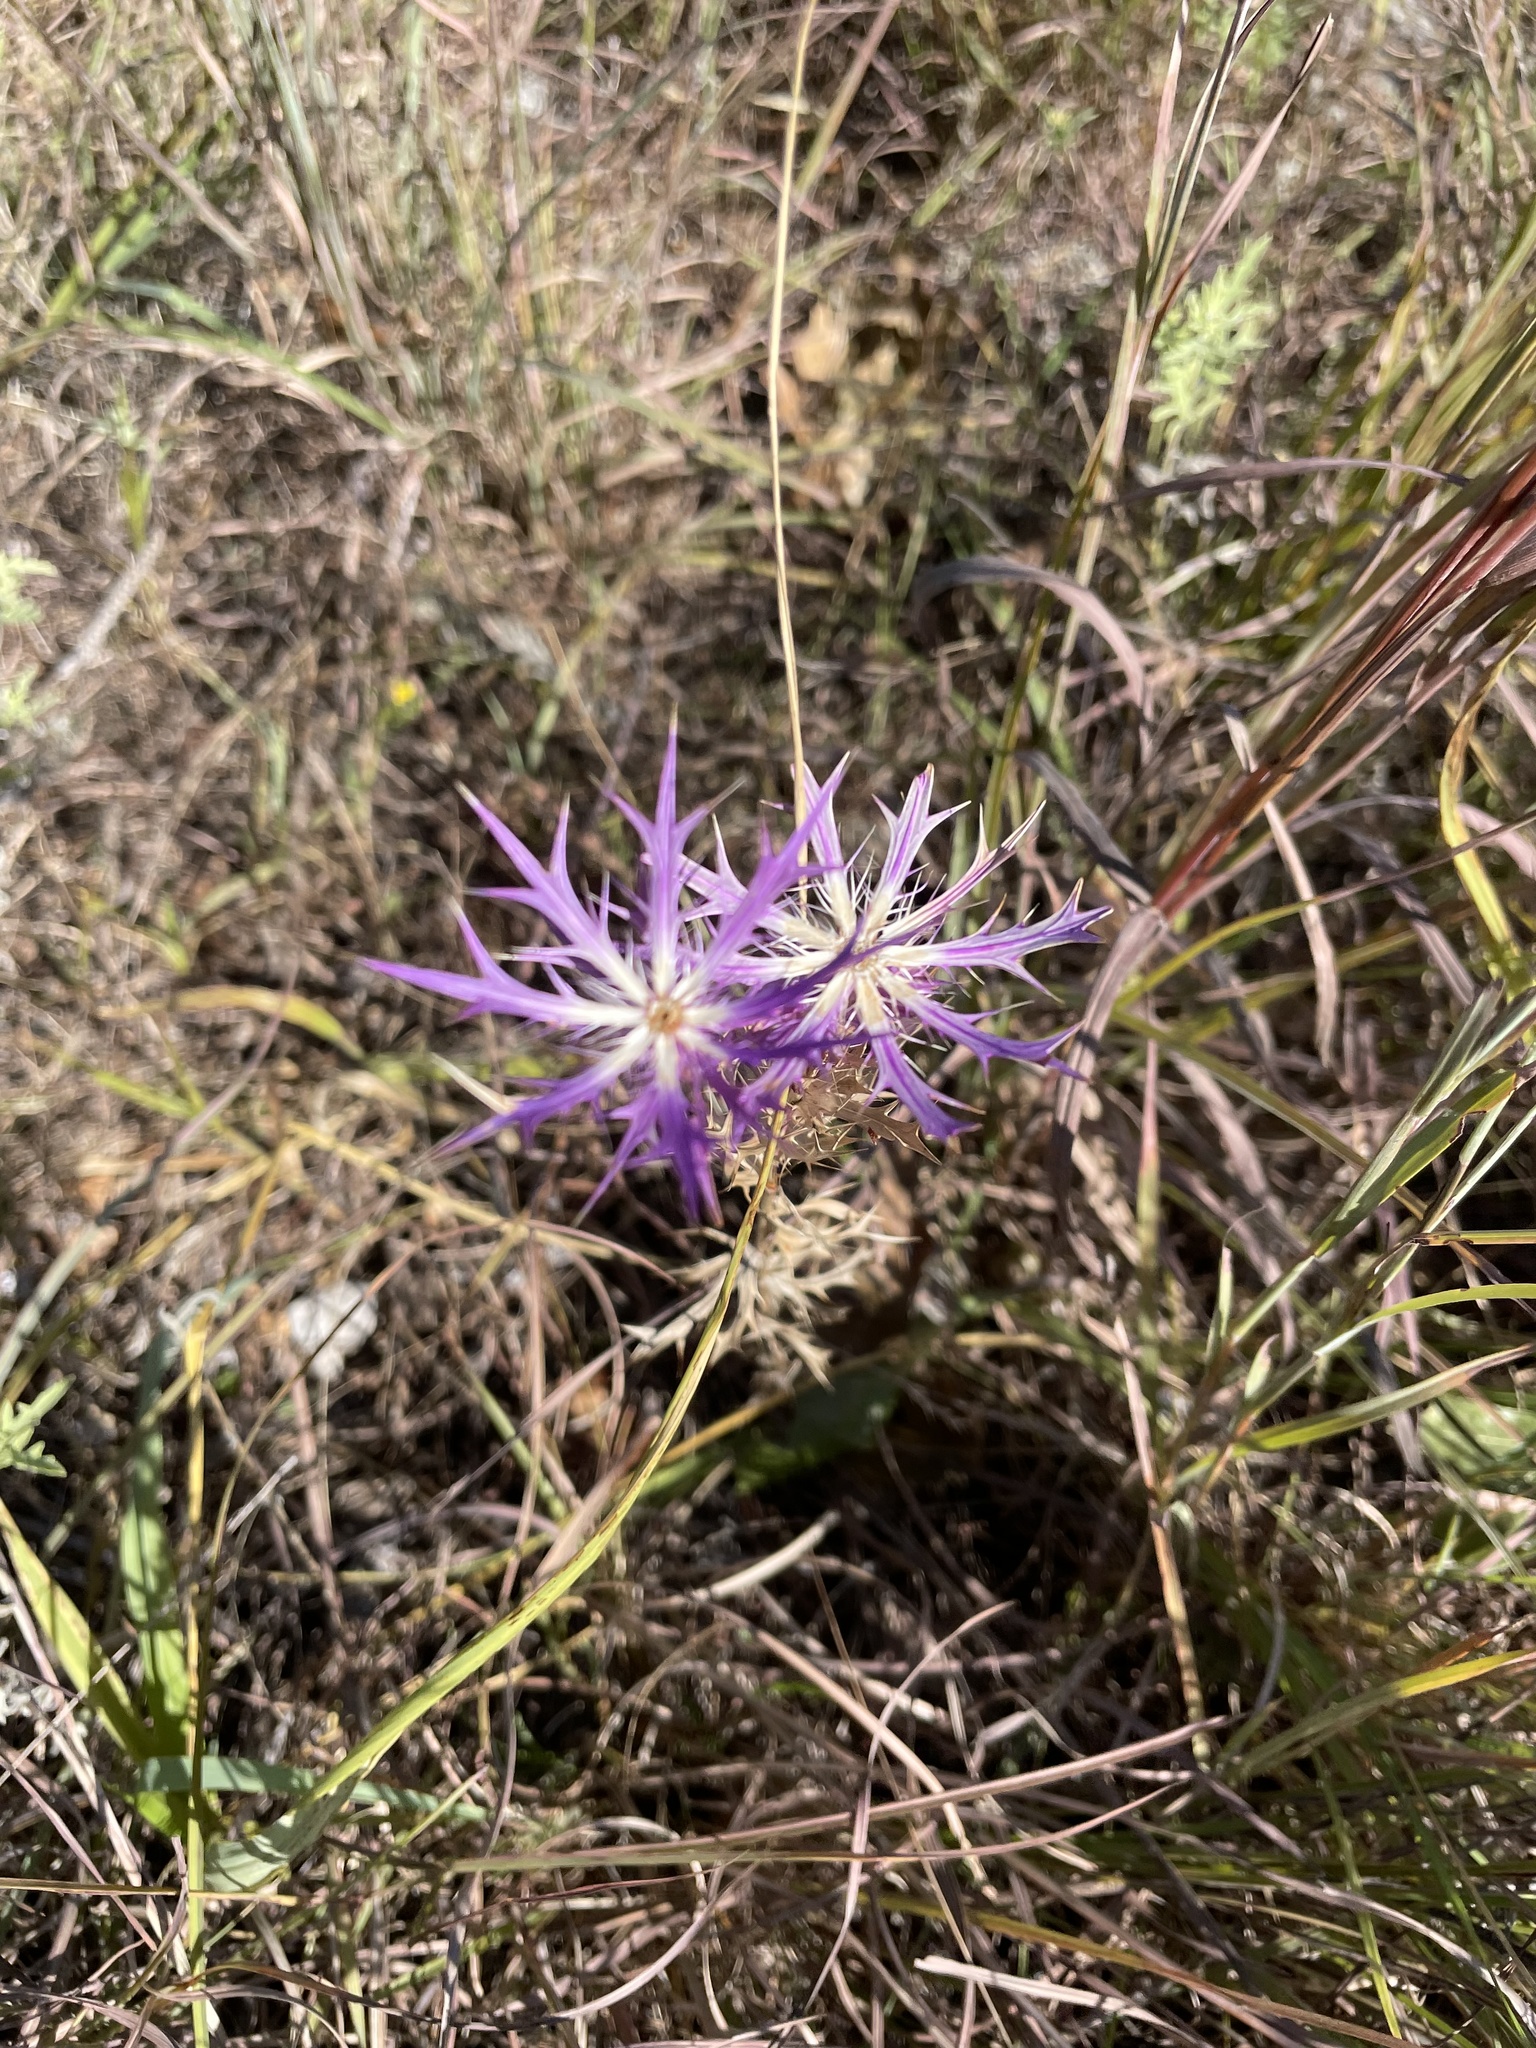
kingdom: Plantae
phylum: Tracheophyta
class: Magnoliopsida
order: Apiales
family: Apiaceae
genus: Eryngium
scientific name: Eryngium leavenworthii
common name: Leavenworth's eryngo
